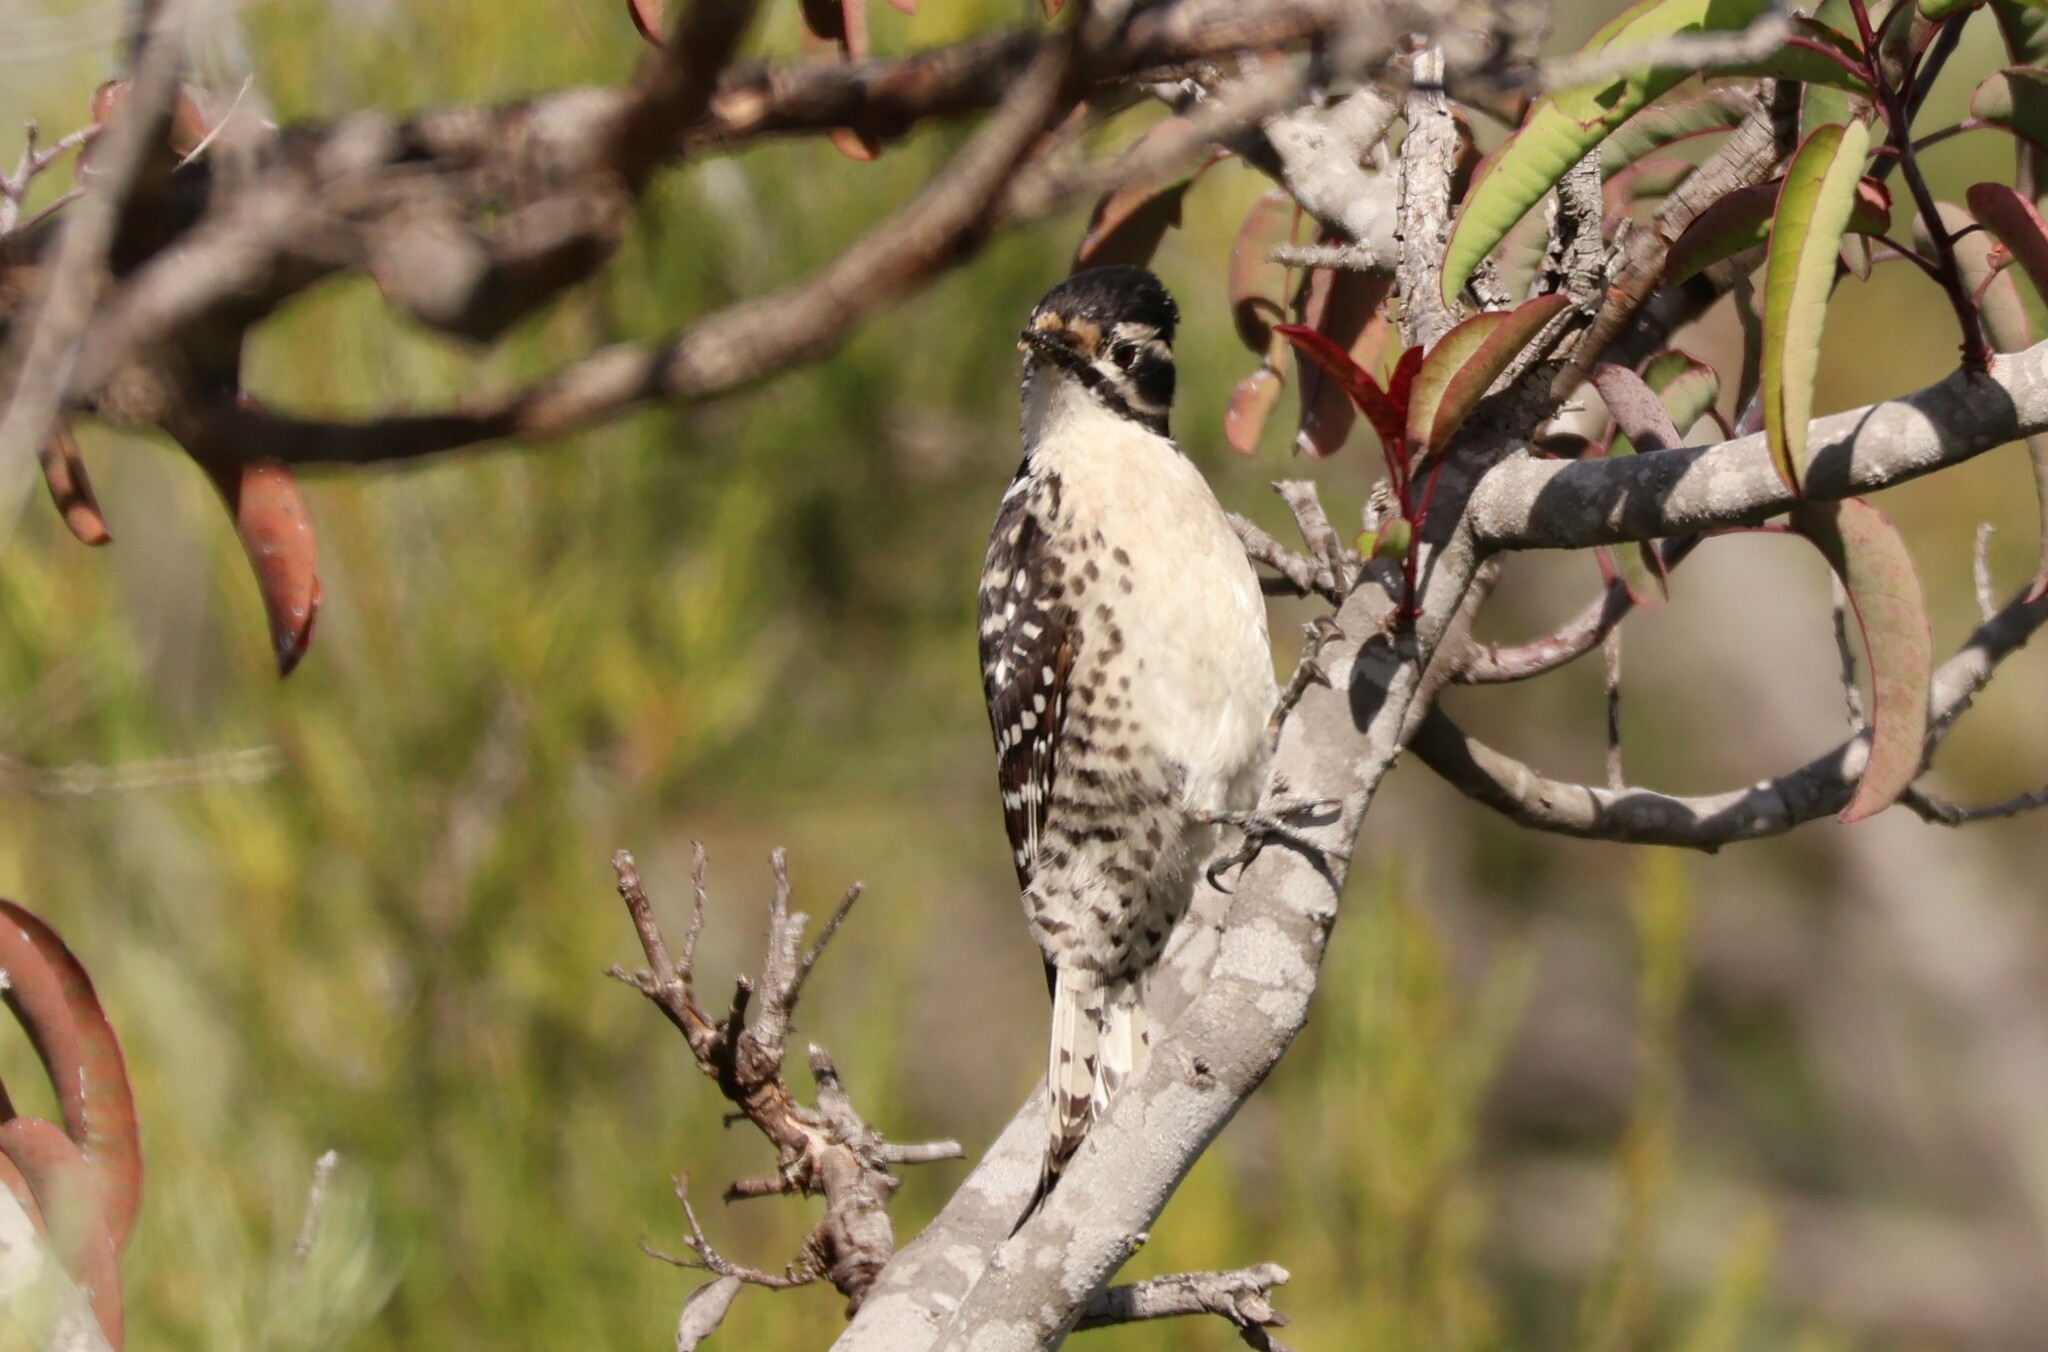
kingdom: Animalia
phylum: Chordata
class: Aves
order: Piciformes
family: Picidae
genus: Dryobates
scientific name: Dryobates nuttallii
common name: Nuttall's woodpecker
